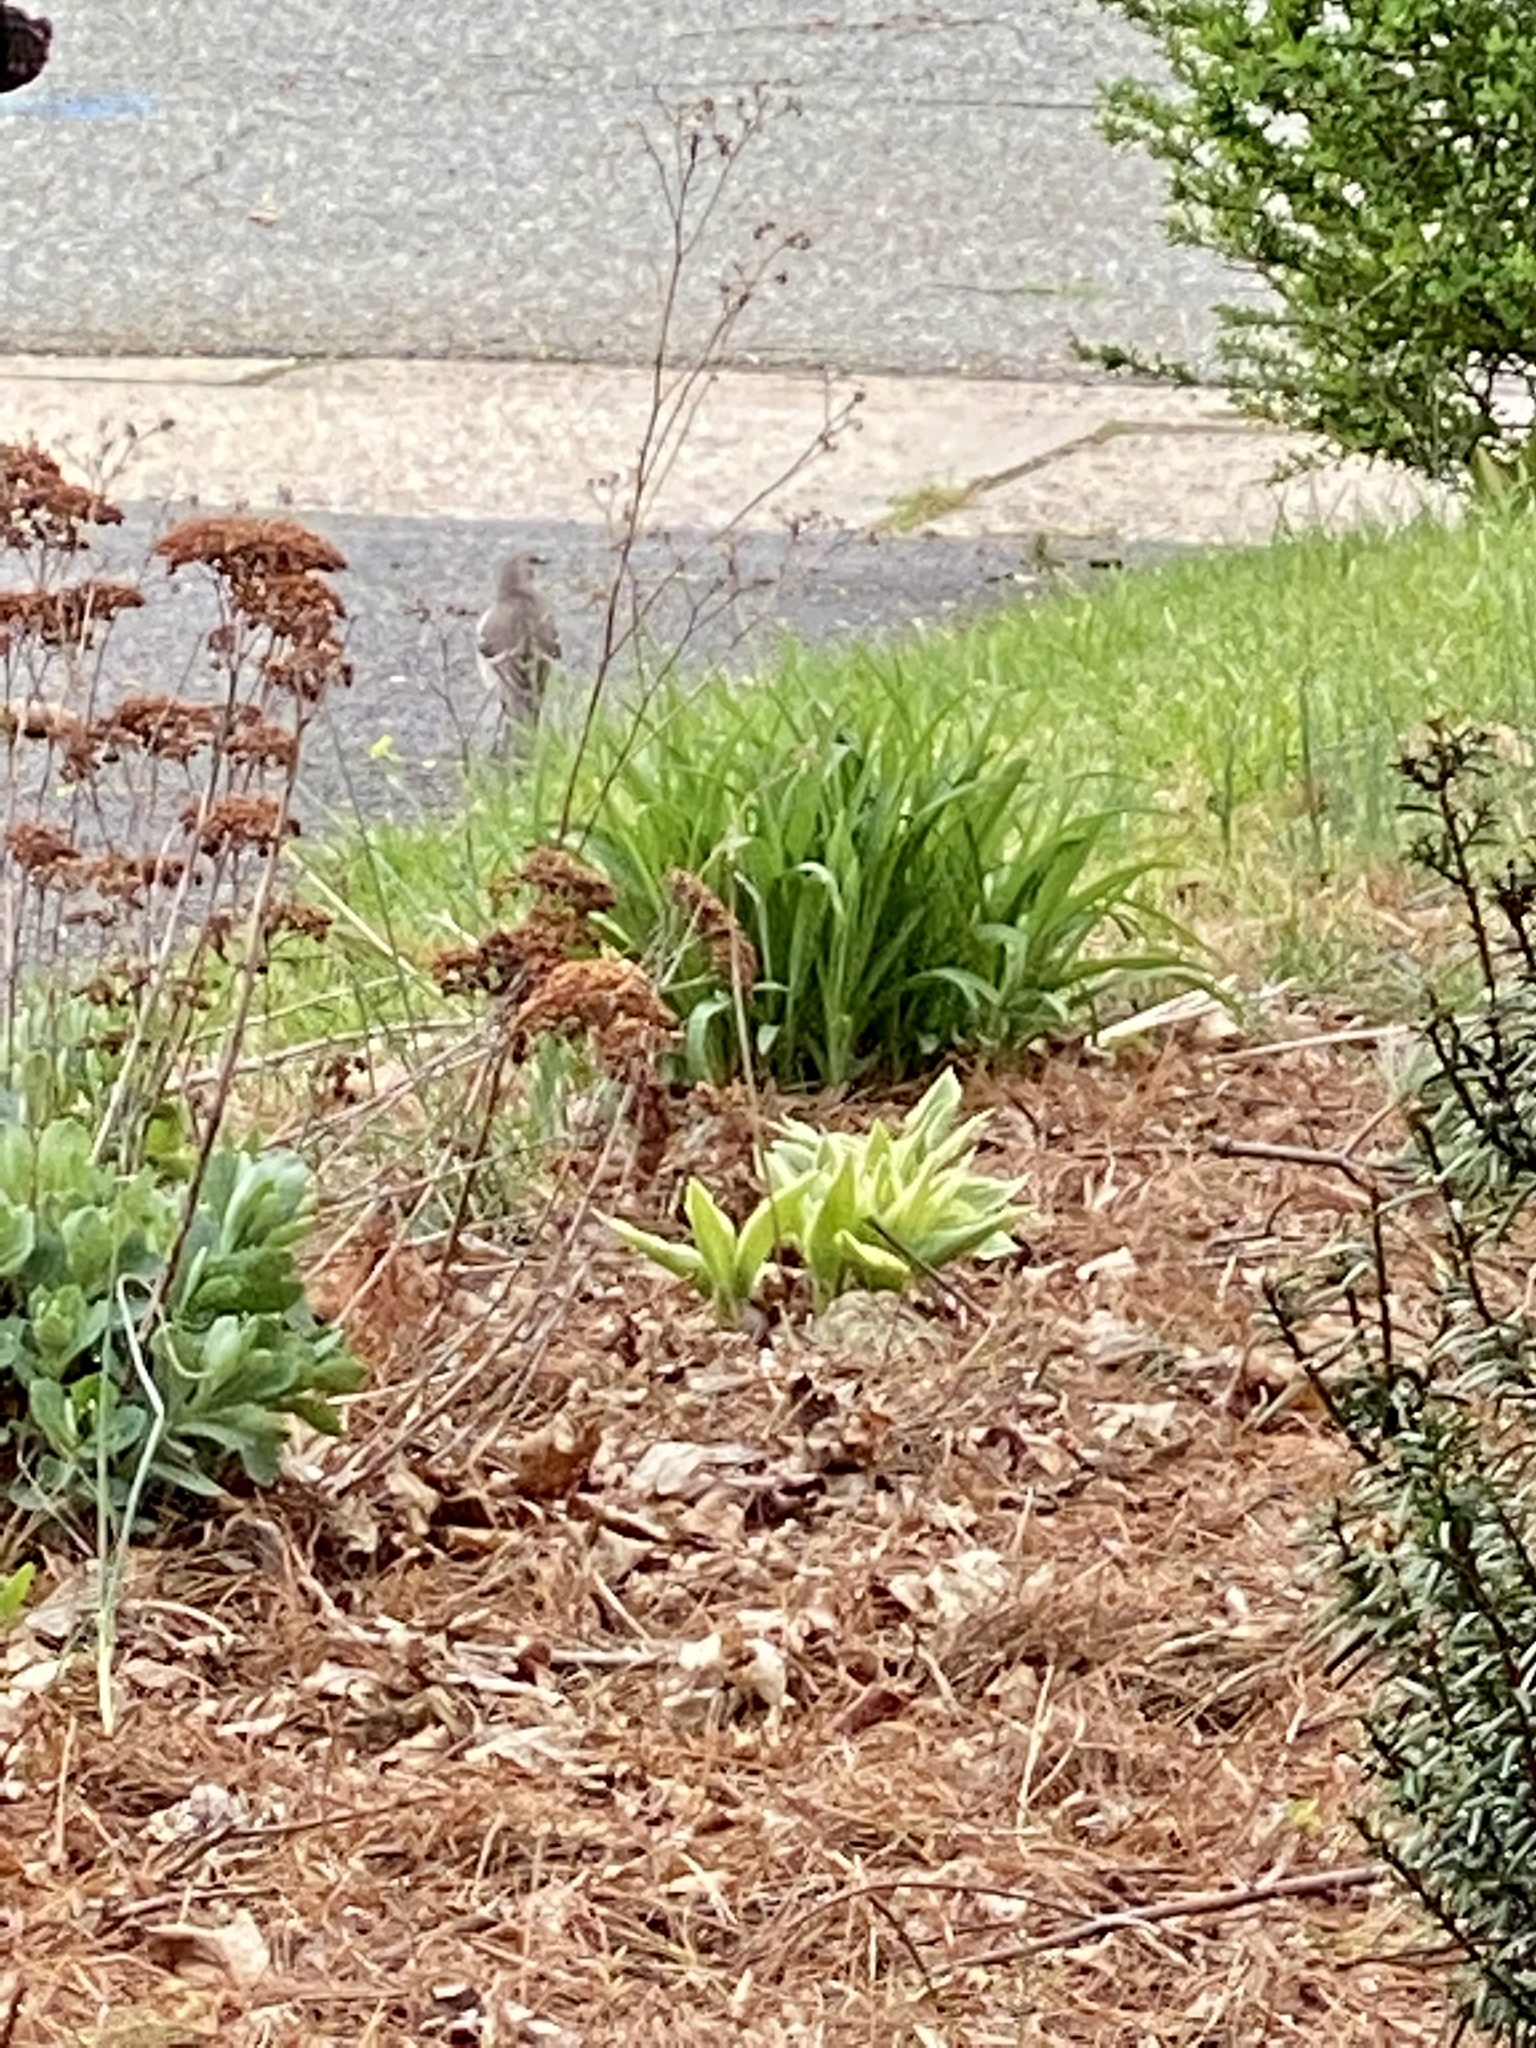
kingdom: Animalia
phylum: Chordata
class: Aves
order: Passeriformes
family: Mimidae
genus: Mimus
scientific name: Mimus polyglottos
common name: Northern mockingbird
